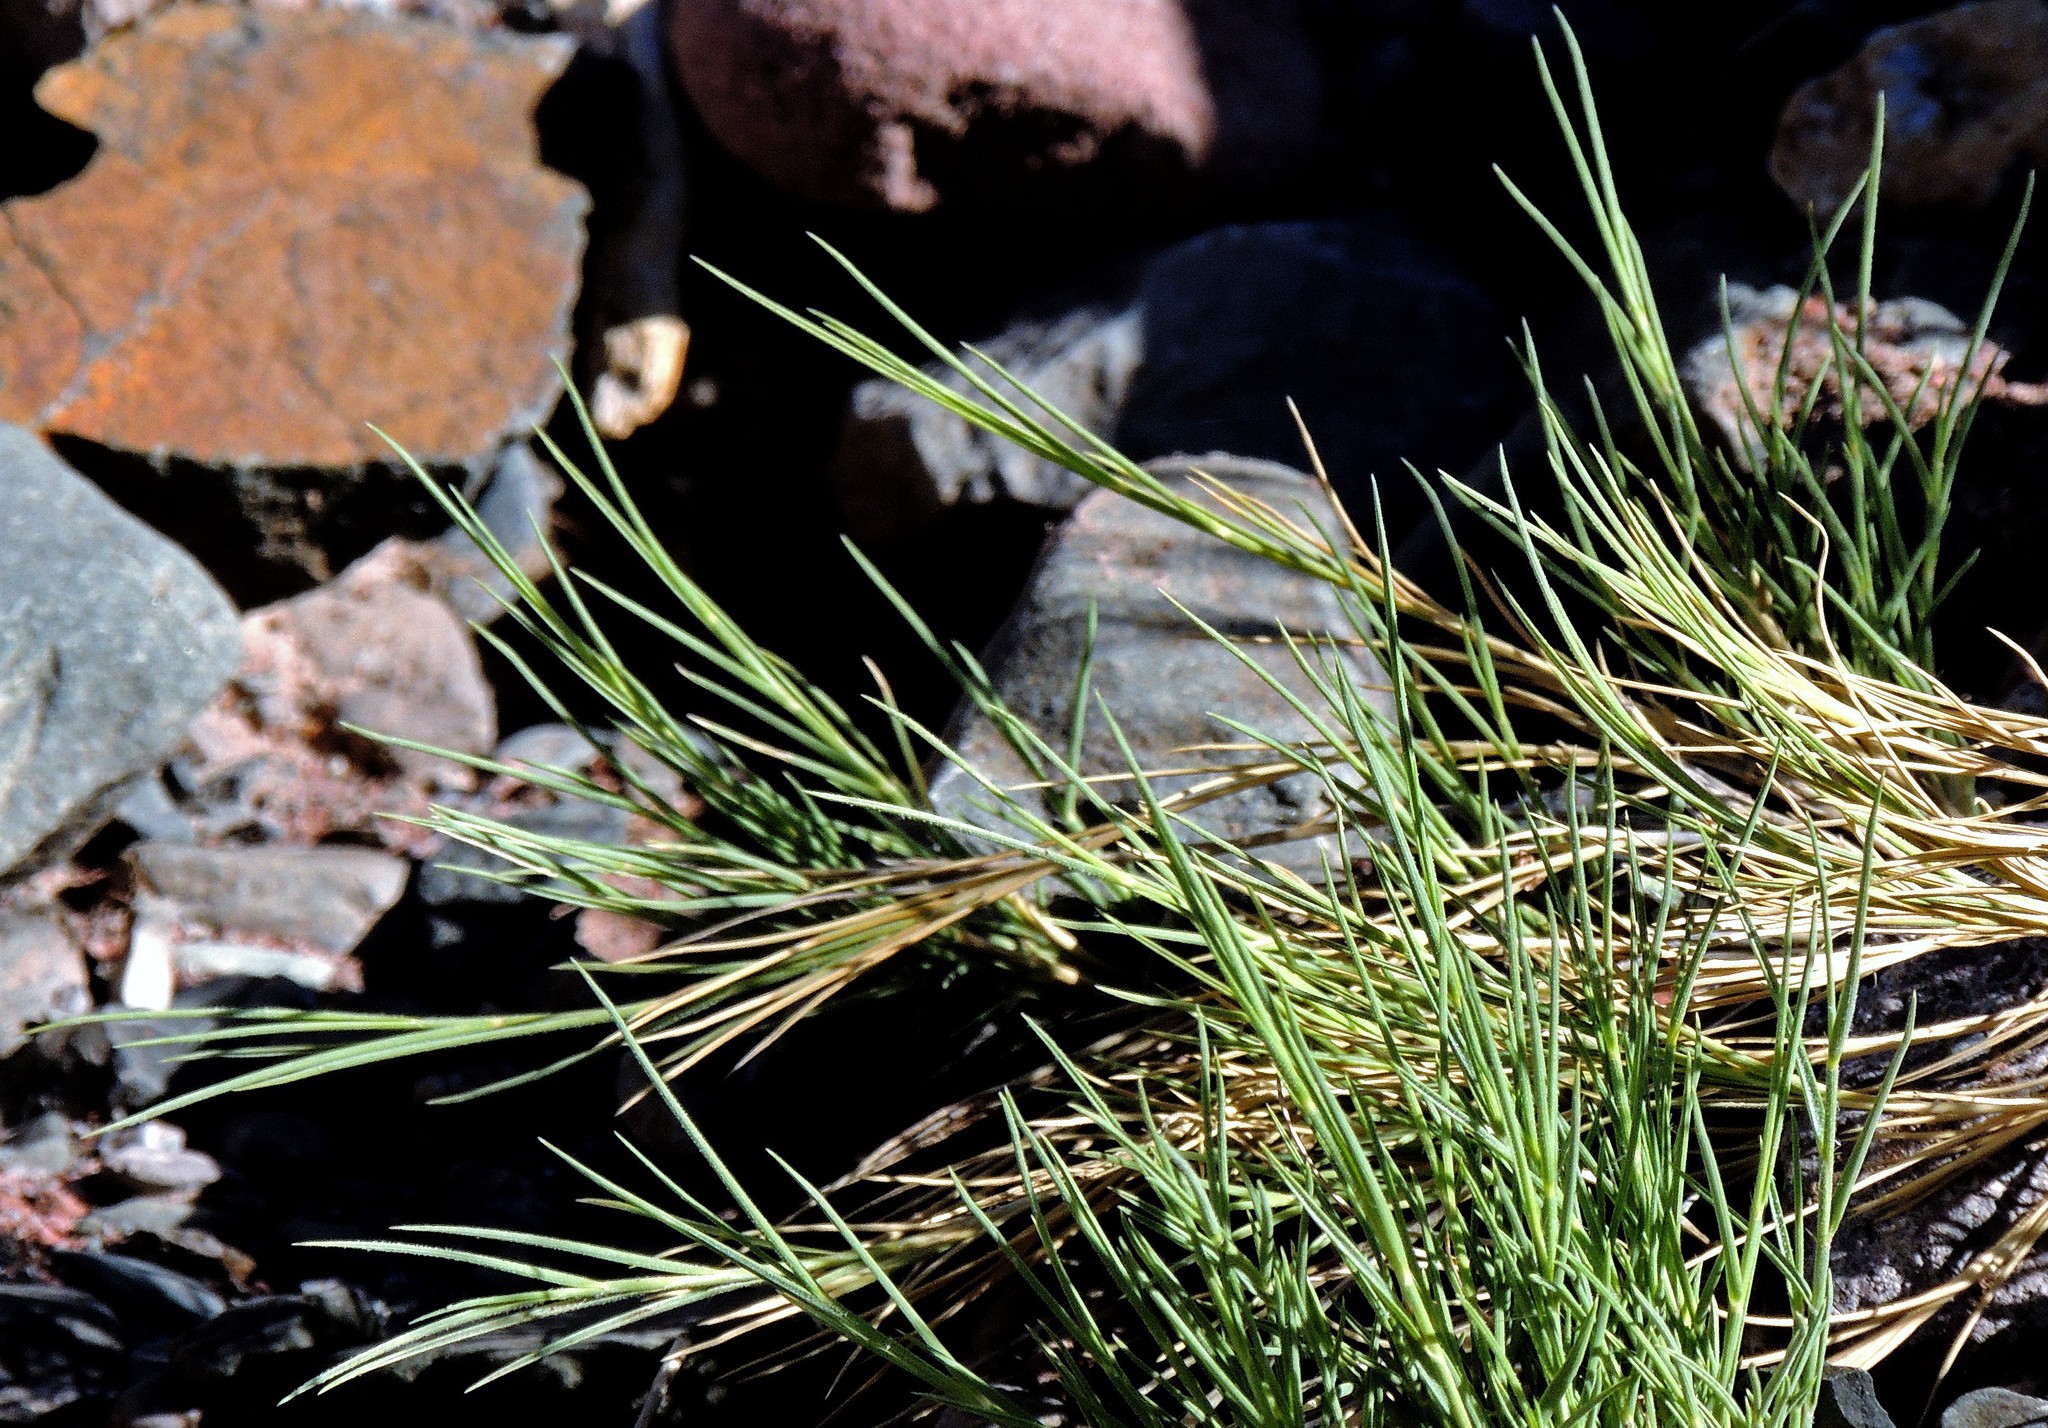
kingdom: Plantae
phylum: Tracheophyta
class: Liliopsida
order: Poales
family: Poaceae
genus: Distichlis
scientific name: Distichlis spicata
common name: Saltgrass
